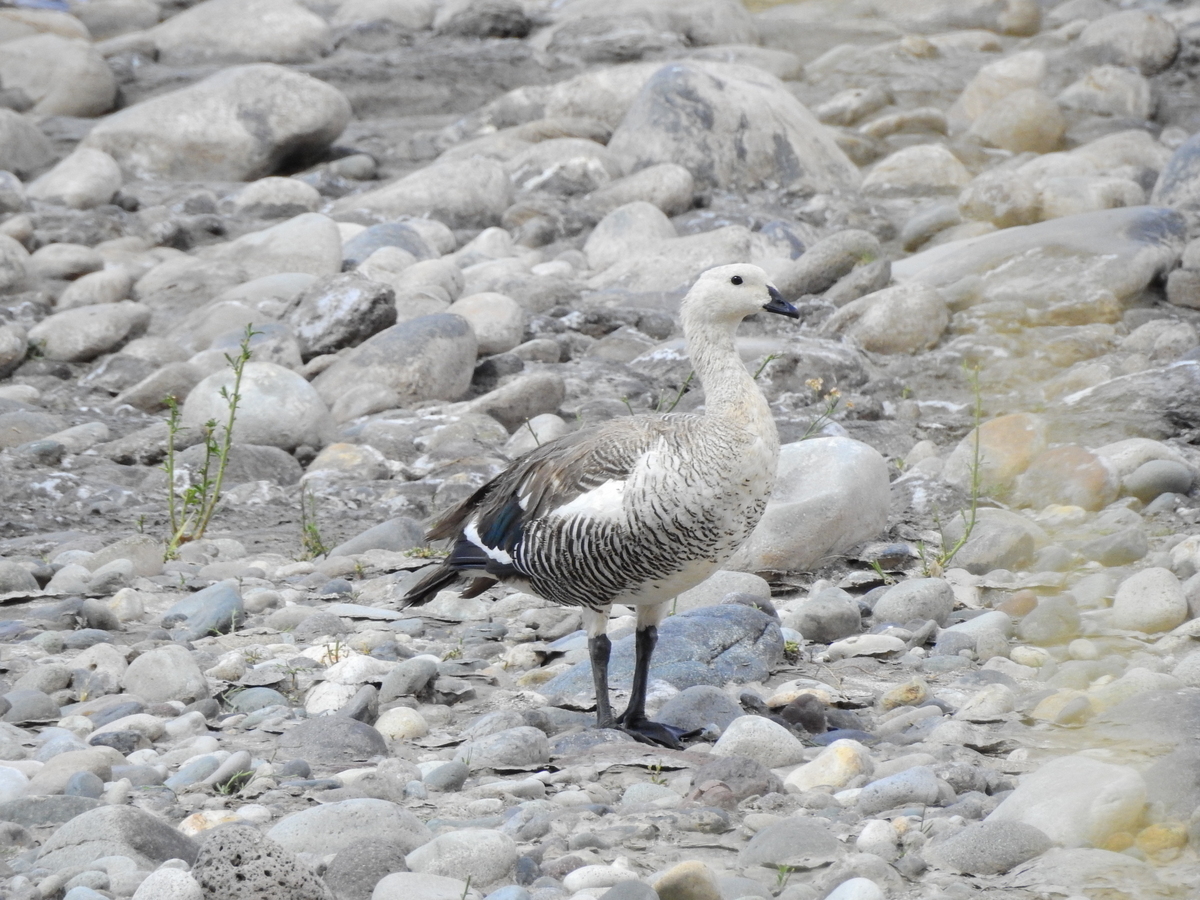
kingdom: Animalia
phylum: Chordata
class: Aves
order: Anseriformes
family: Anatidae
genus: Chloephaga
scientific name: Chloephaga picta
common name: Upland goose
